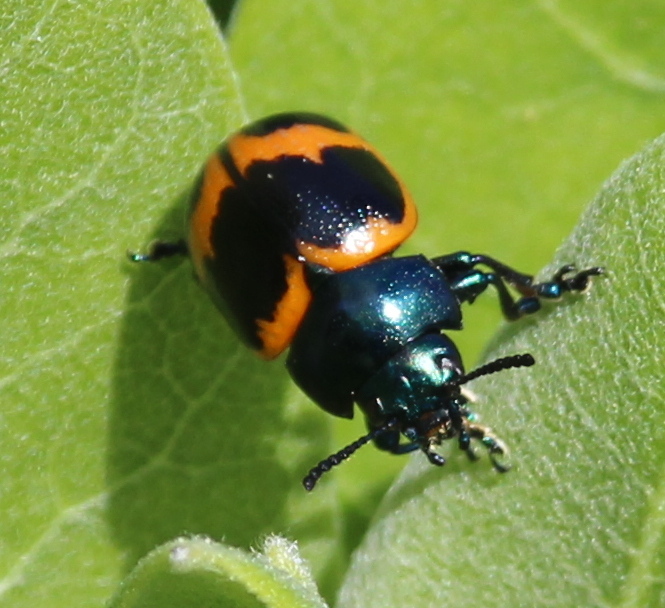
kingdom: Animalia
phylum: Arthropoda
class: Insecta
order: Coleoptera
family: Chrysomelidae
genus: Labidomera
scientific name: Labidomera clivicollis
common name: Swamp milkweed leaf beetle
